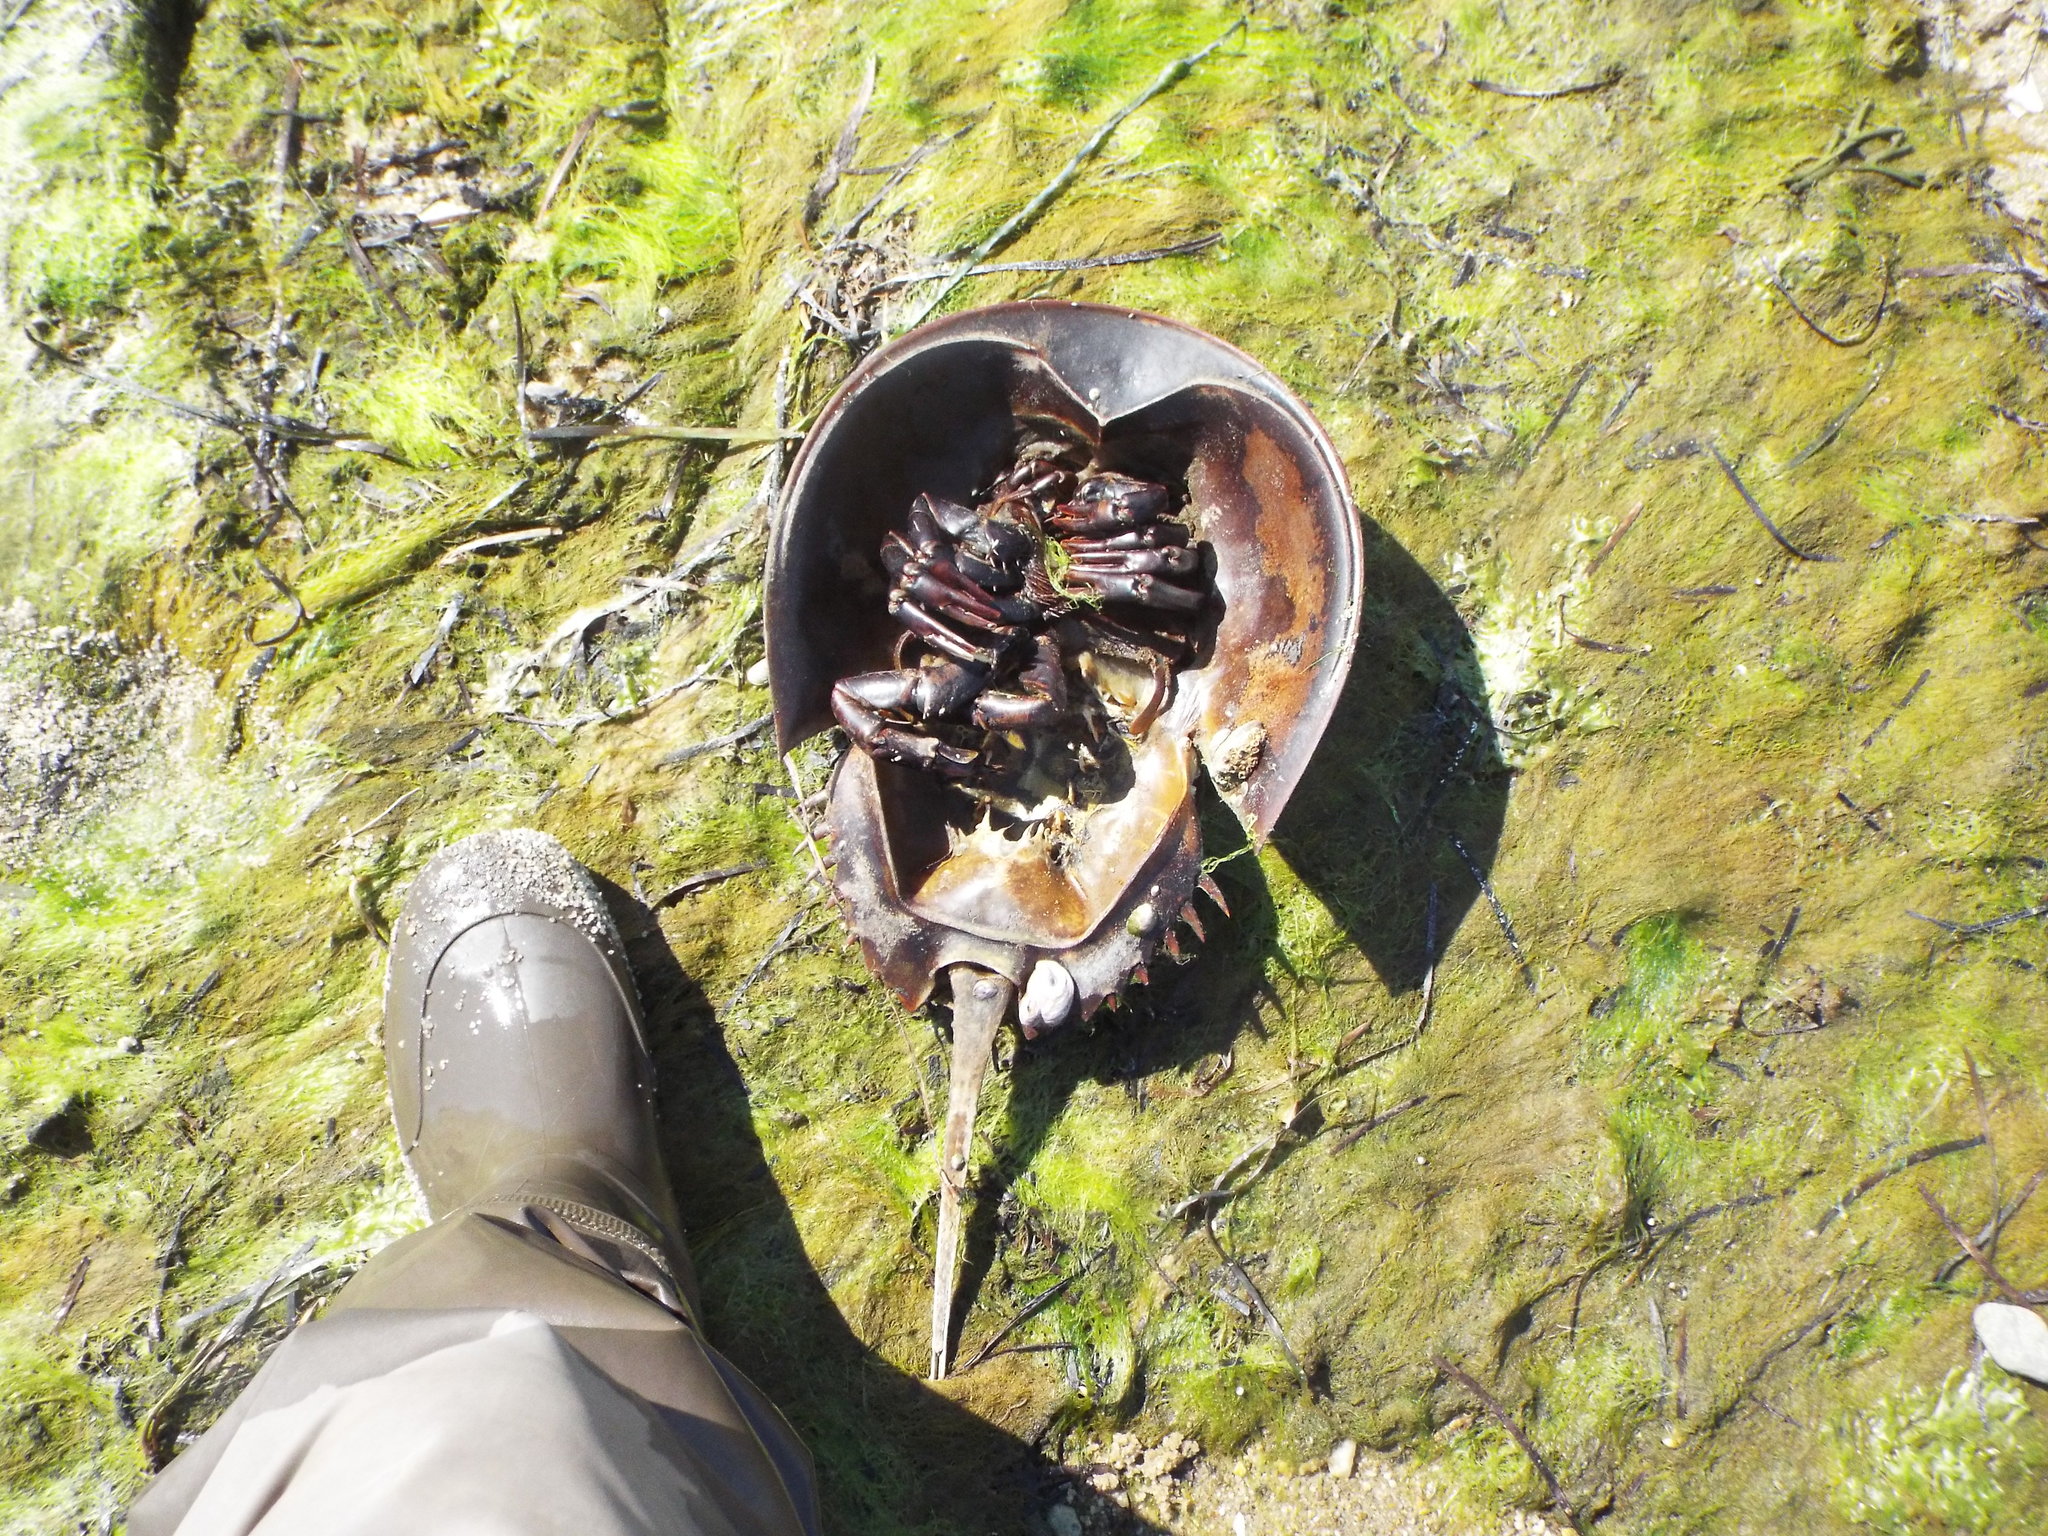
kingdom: Animalia
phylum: Arthropoda
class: Merostomata
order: Xiphosurida
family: Limulidae
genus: Limulus
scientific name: Limulus polyphemus
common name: Horseshoe crab
